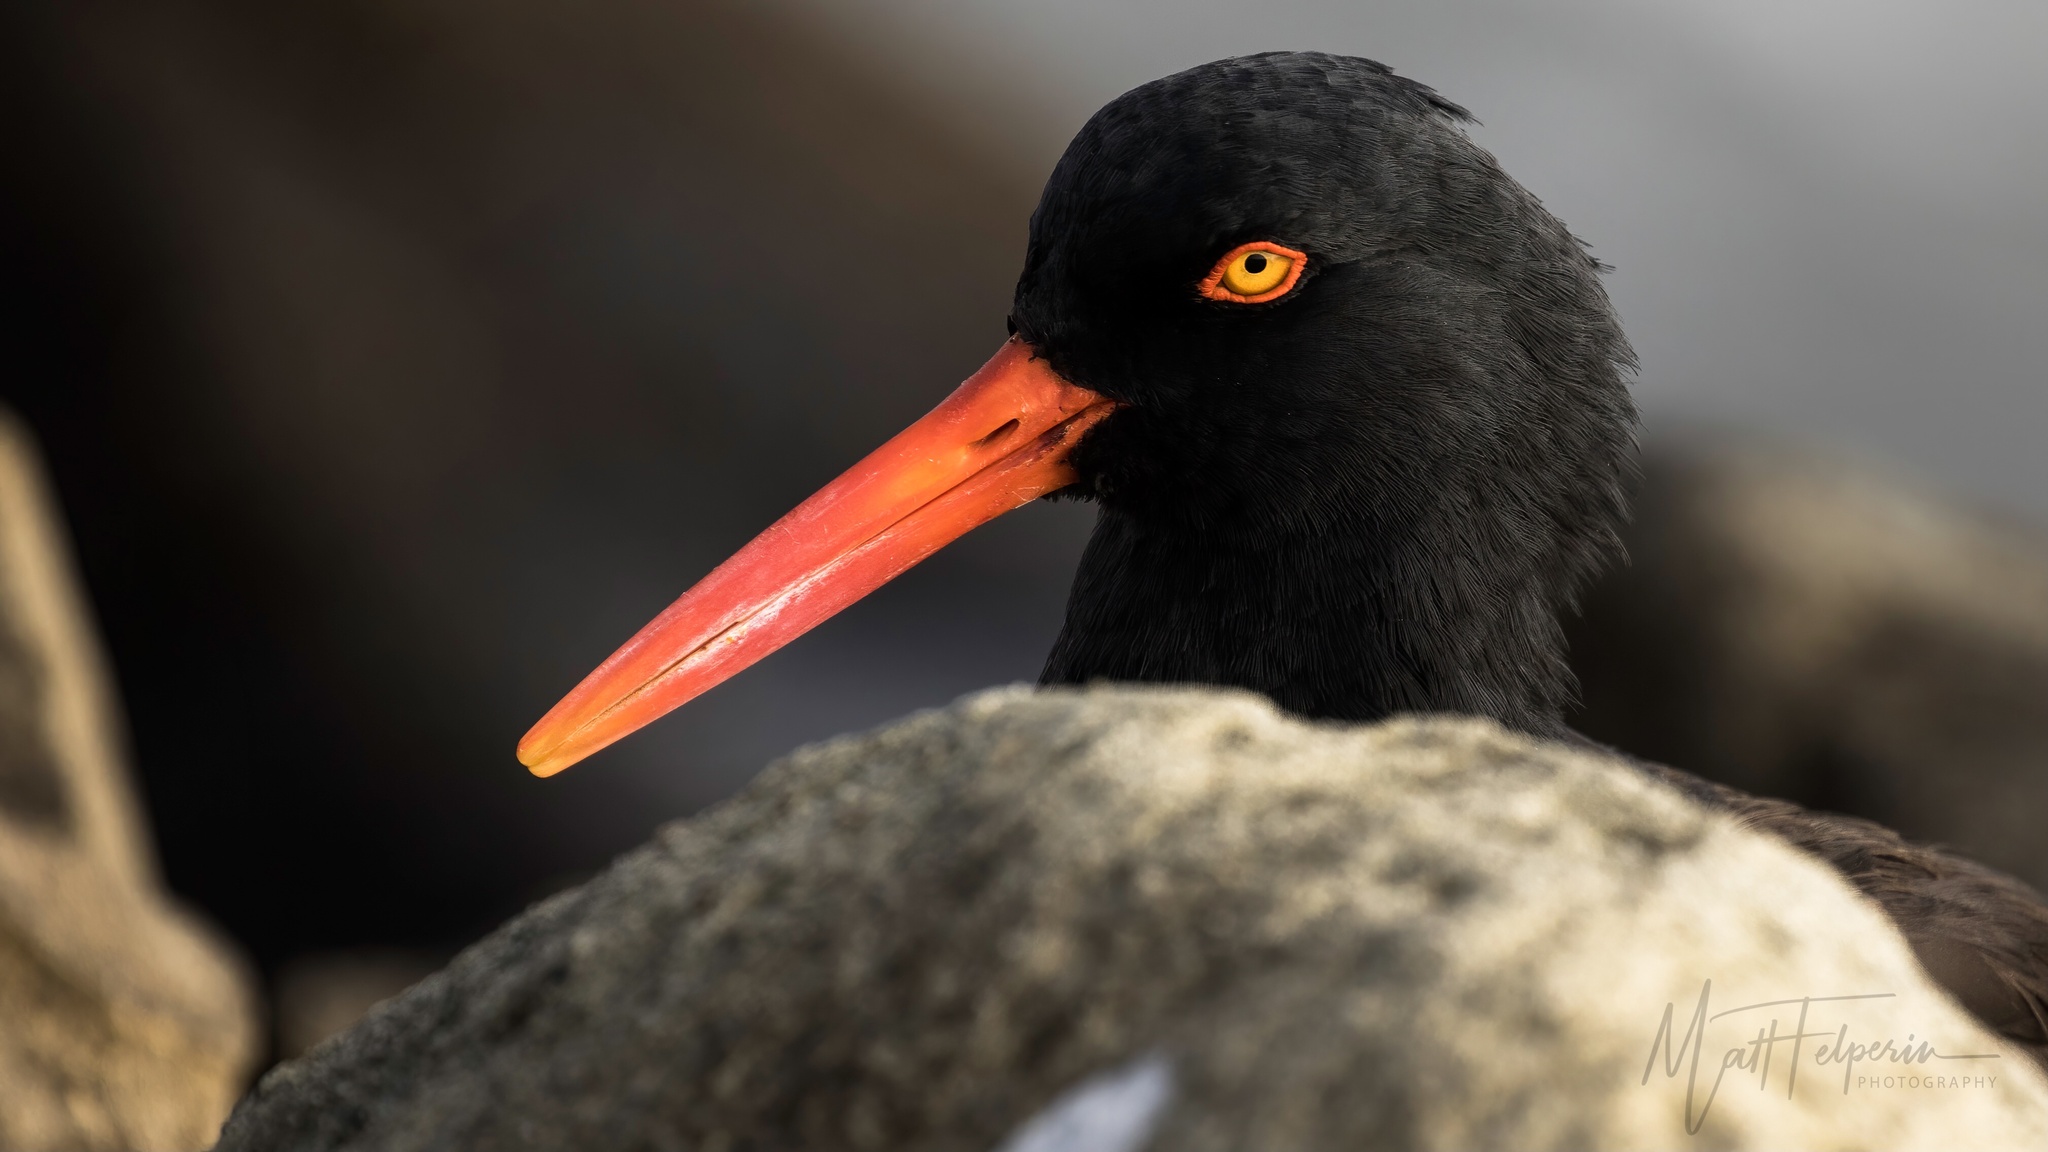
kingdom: Animalia
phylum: Chordata
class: Aves
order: Charadriiformes
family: Haematopodidae
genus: Haematopus
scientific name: Haematopus bachmani
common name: Black oystercatcher
